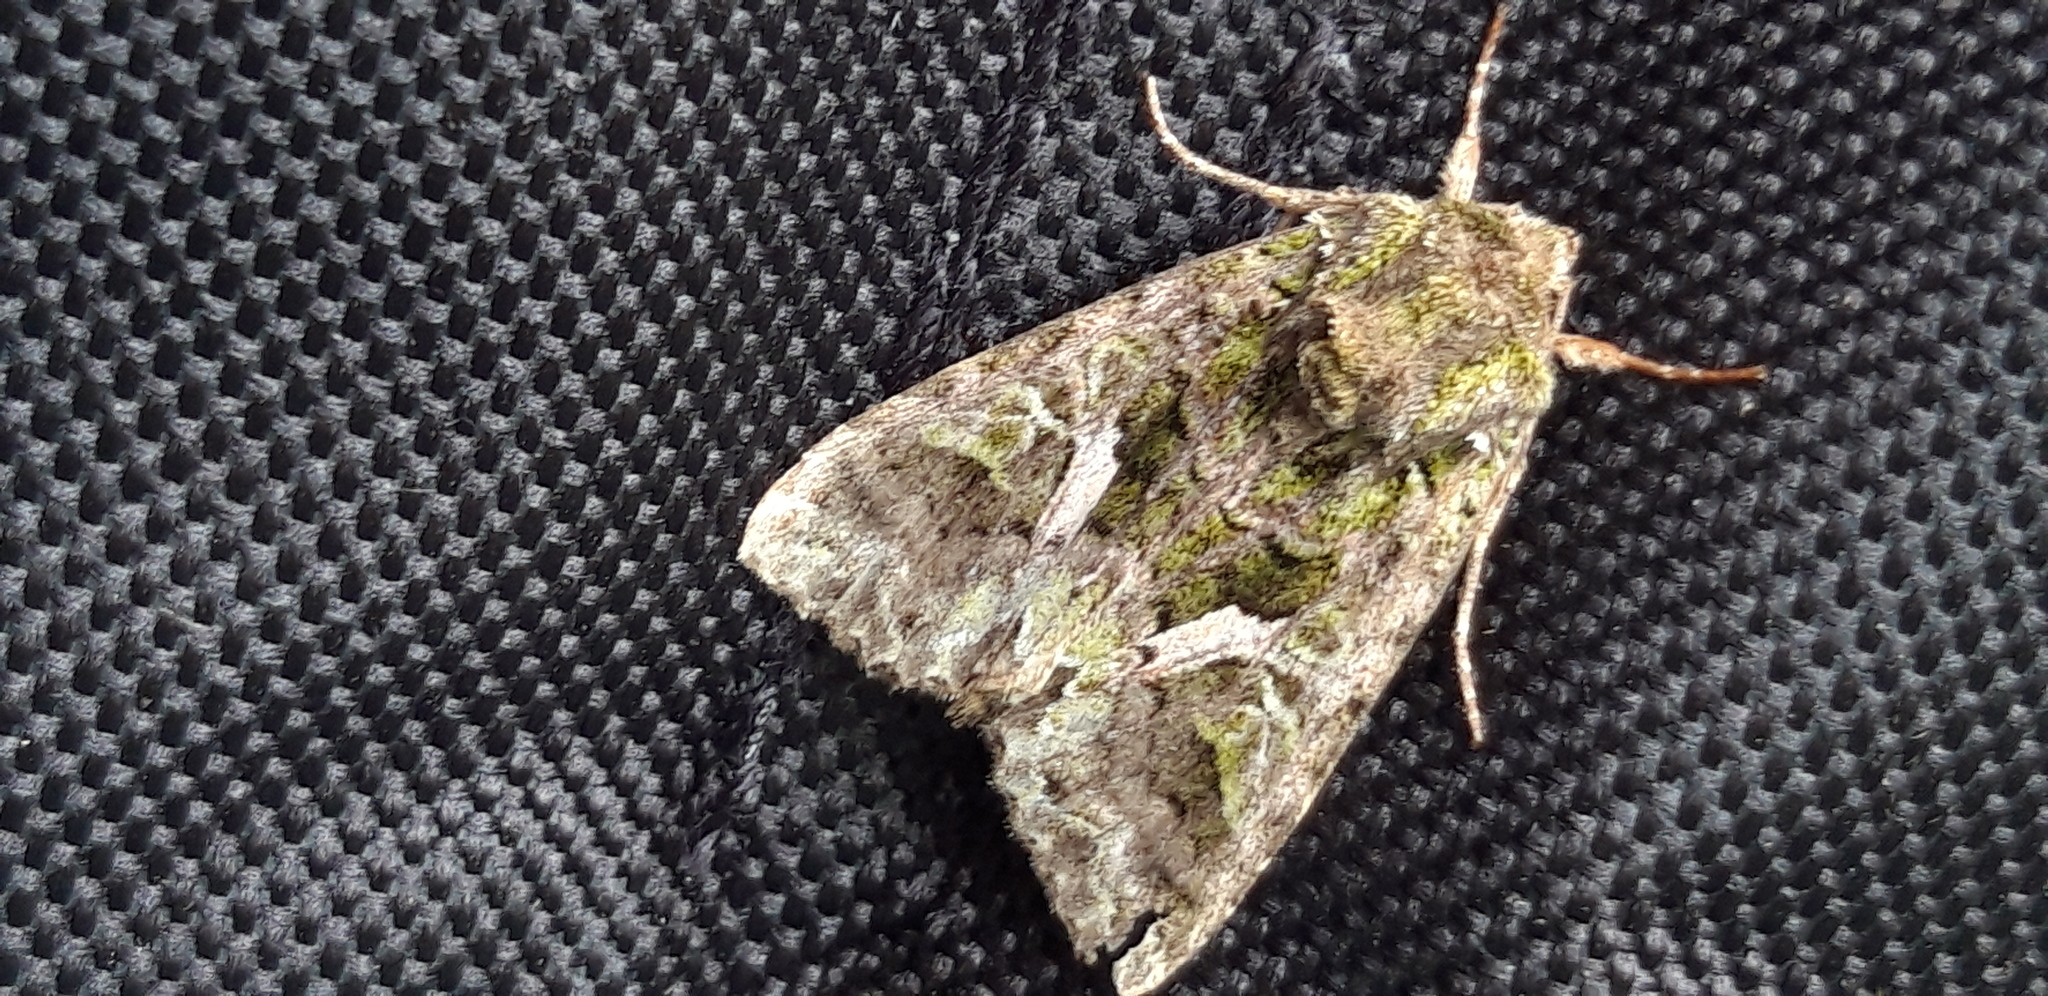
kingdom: Animalia
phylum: Arthropoda
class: Insecta
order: Lepidoptera
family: Noctuidae
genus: Trachea
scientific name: Trachea atriplicis
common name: Orache moth
